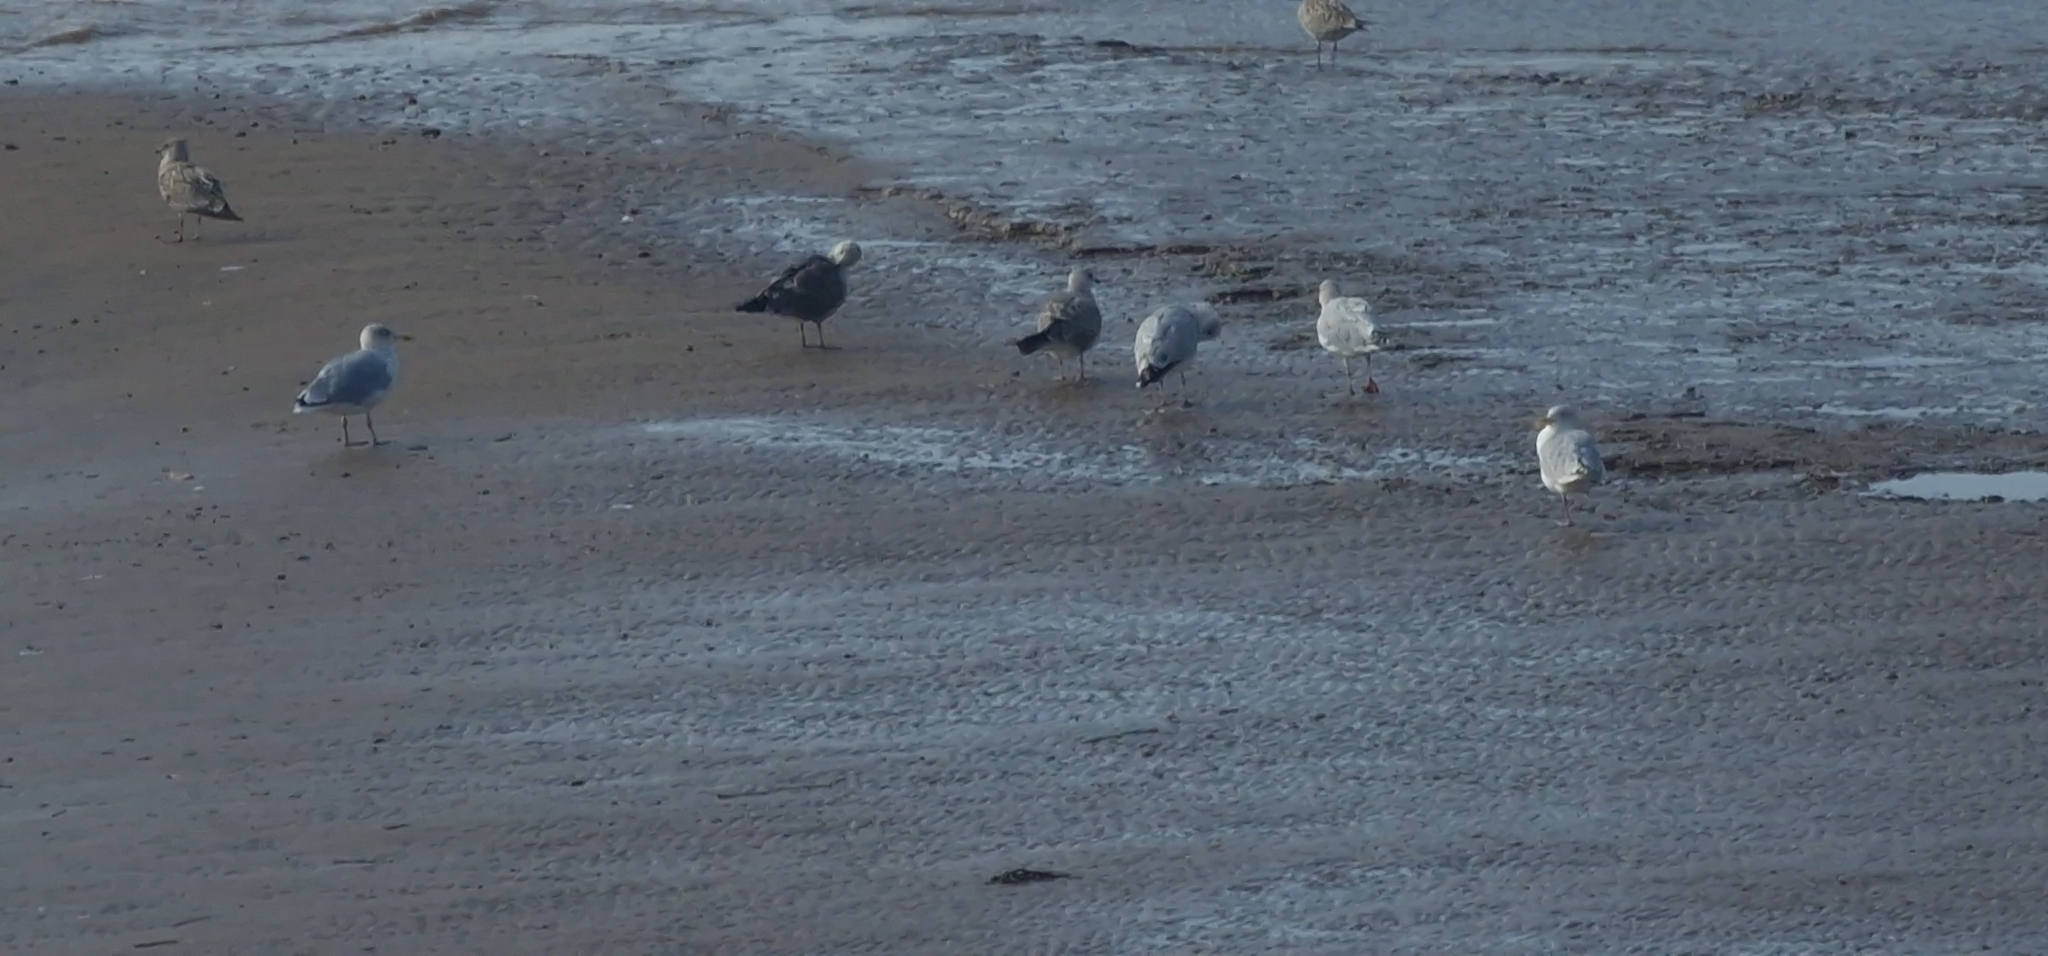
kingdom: Animalia
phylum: Chordata
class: Aves
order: Charadriiformes
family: Laridae
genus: Larus
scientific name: Larus argentatus
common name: Herring gull
